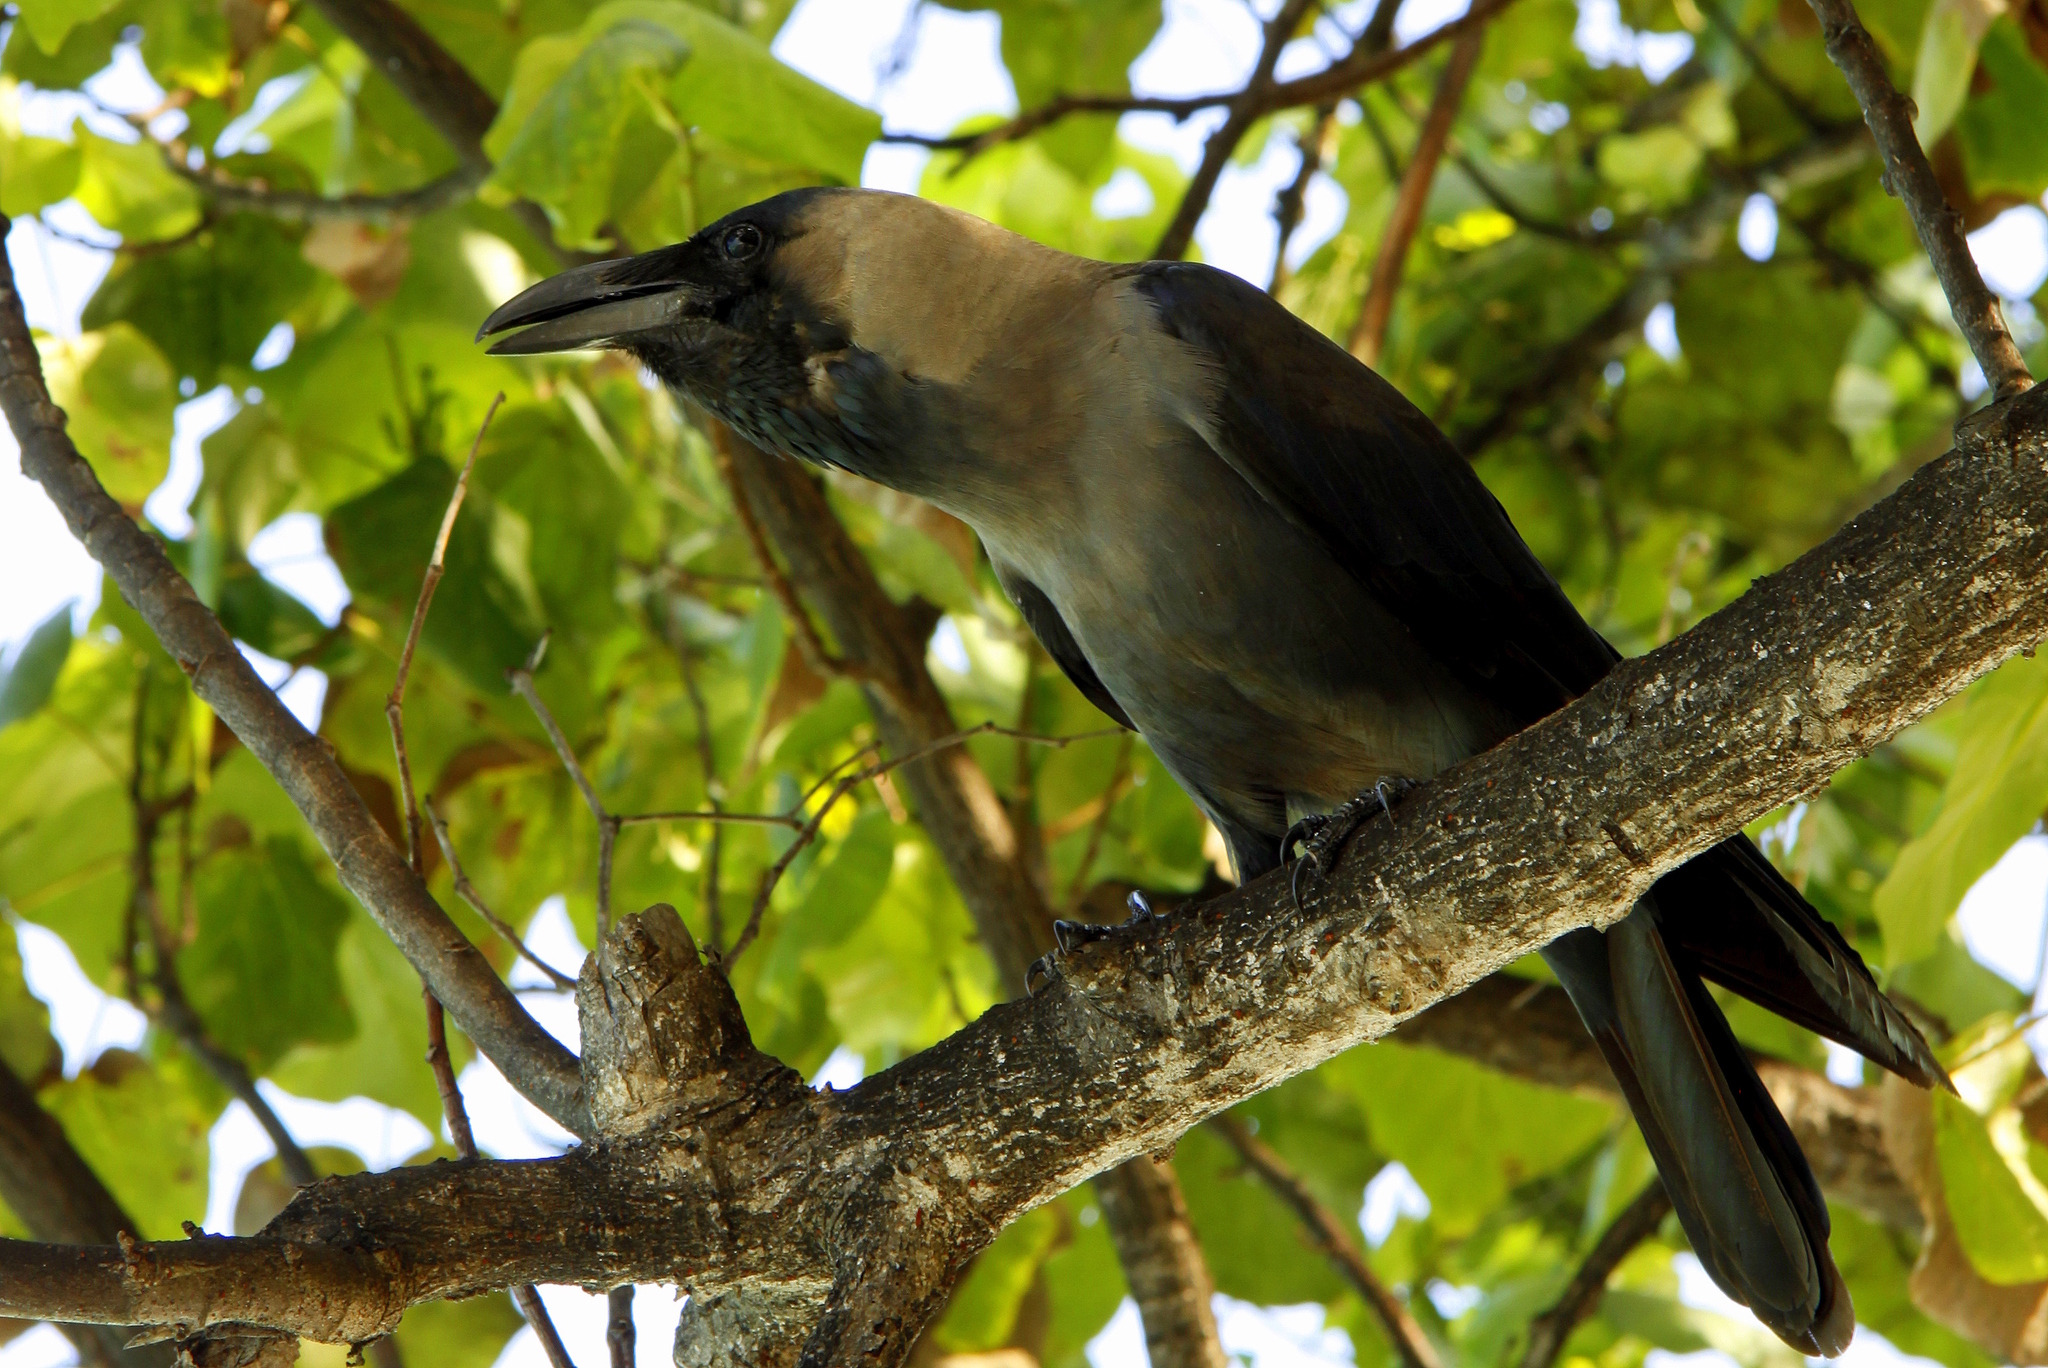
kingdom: Animalia
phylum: Chordata
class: Aves
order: Passeriformes
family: Corvidae
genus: Corvus
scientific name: Corvus splendens
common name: House crow
